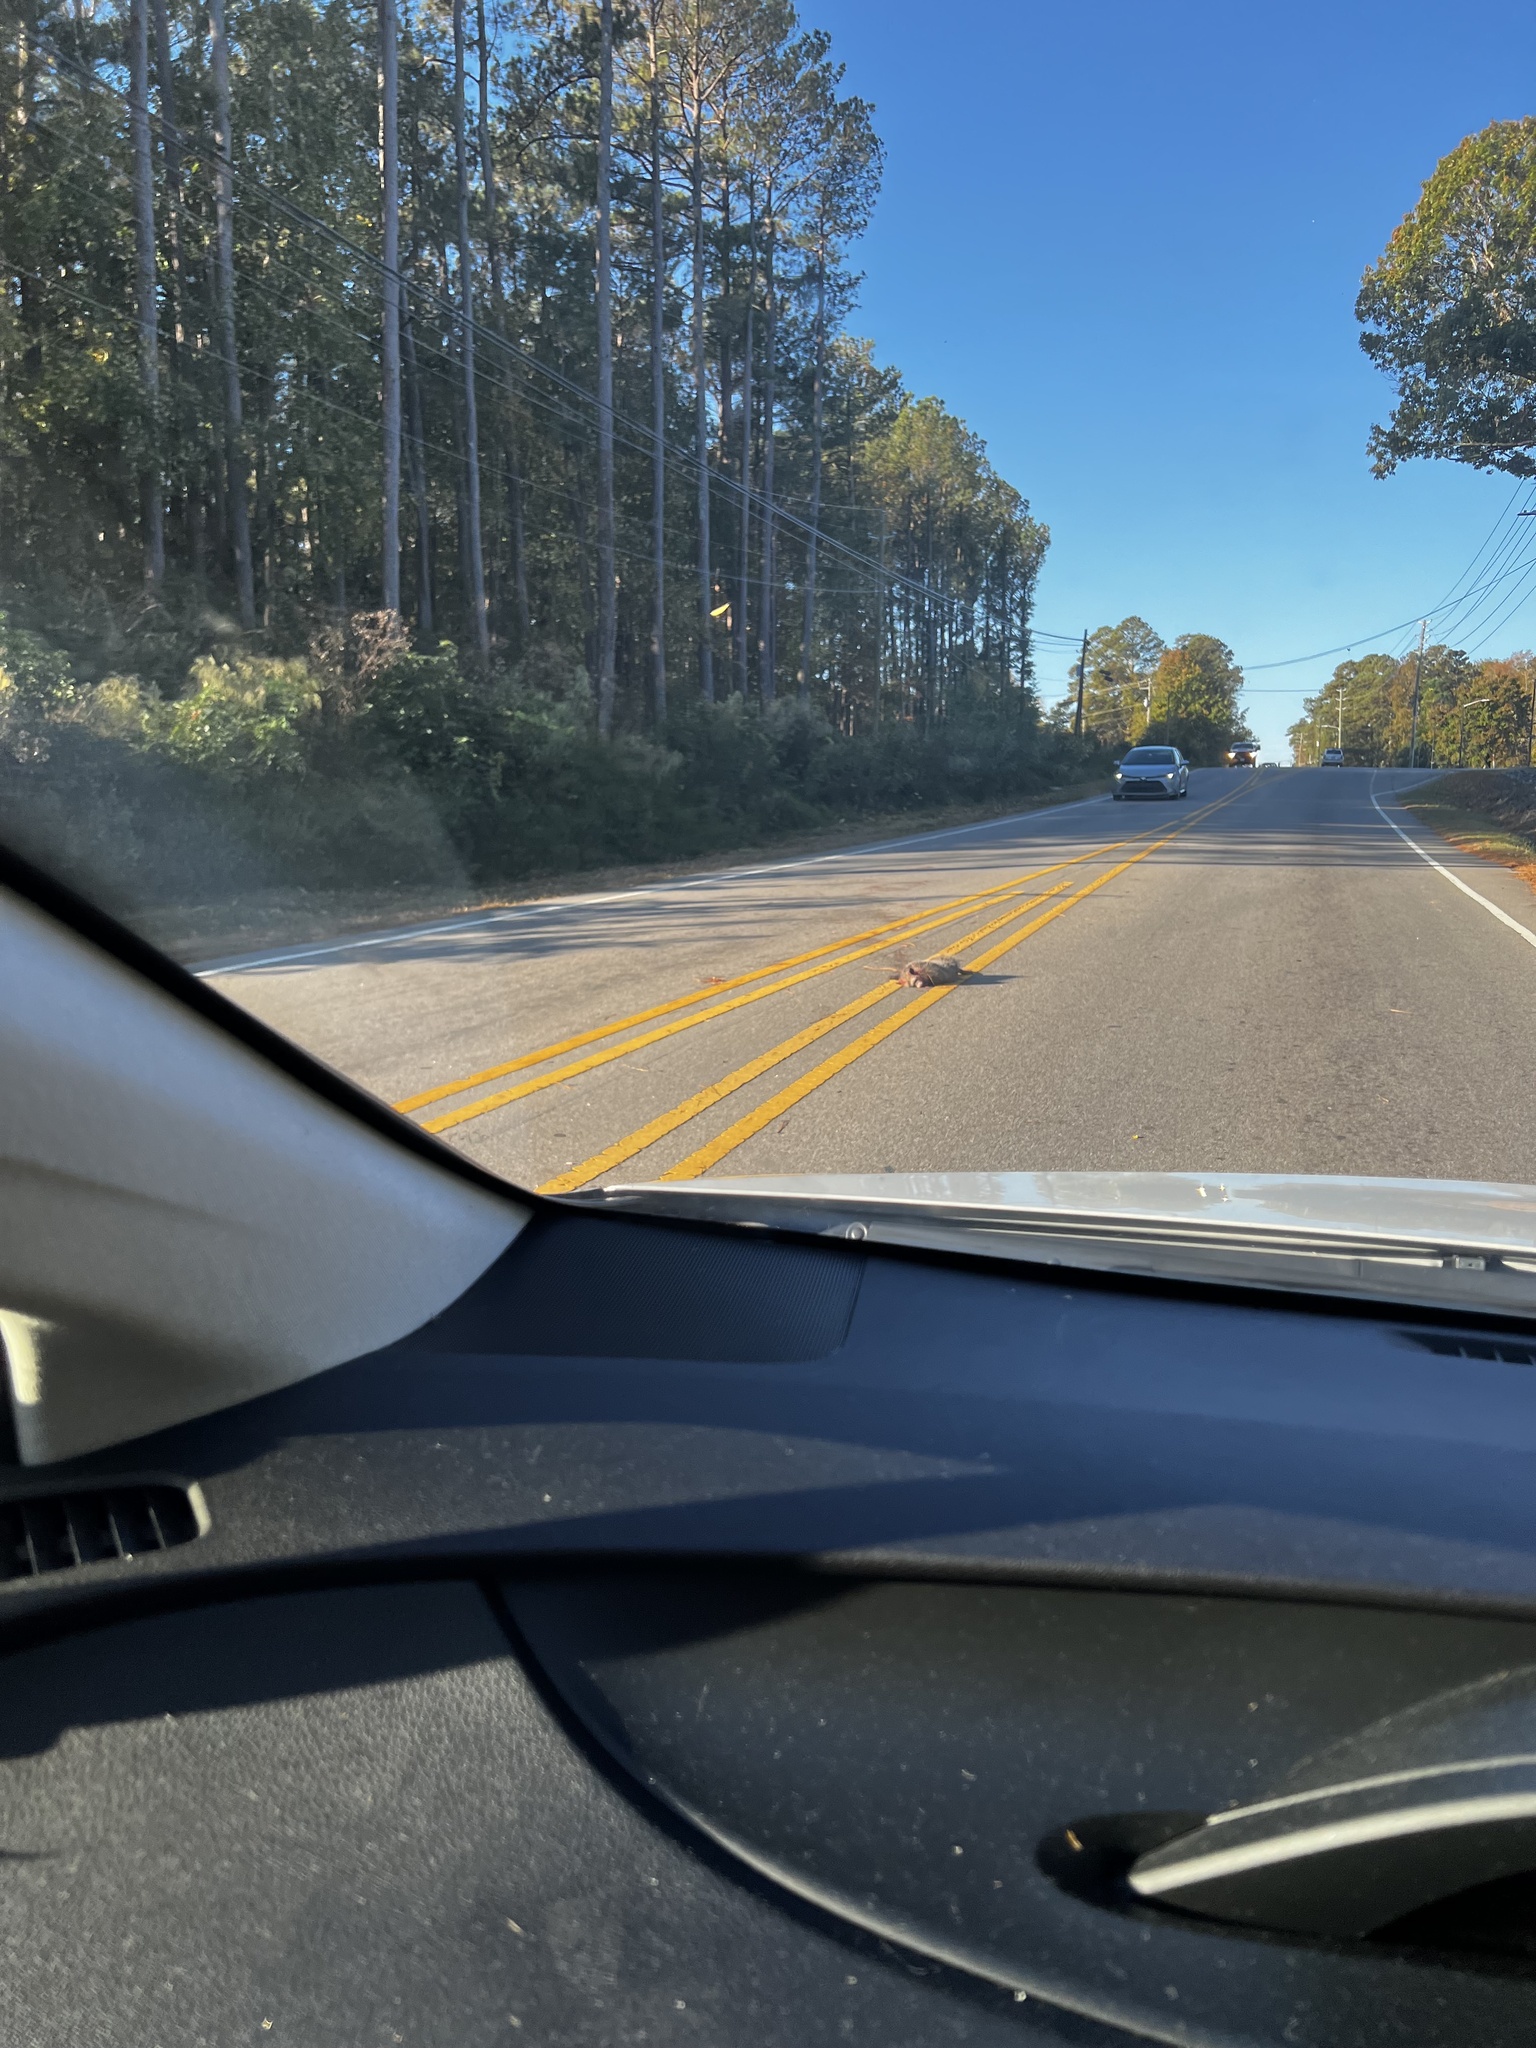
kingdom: Animalia
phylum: Chordata
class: Mammalia
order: Didelphimorphia
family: Didelphidae
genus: Didelphis
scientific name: Didelphis virginiana
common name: Virginia opossum
